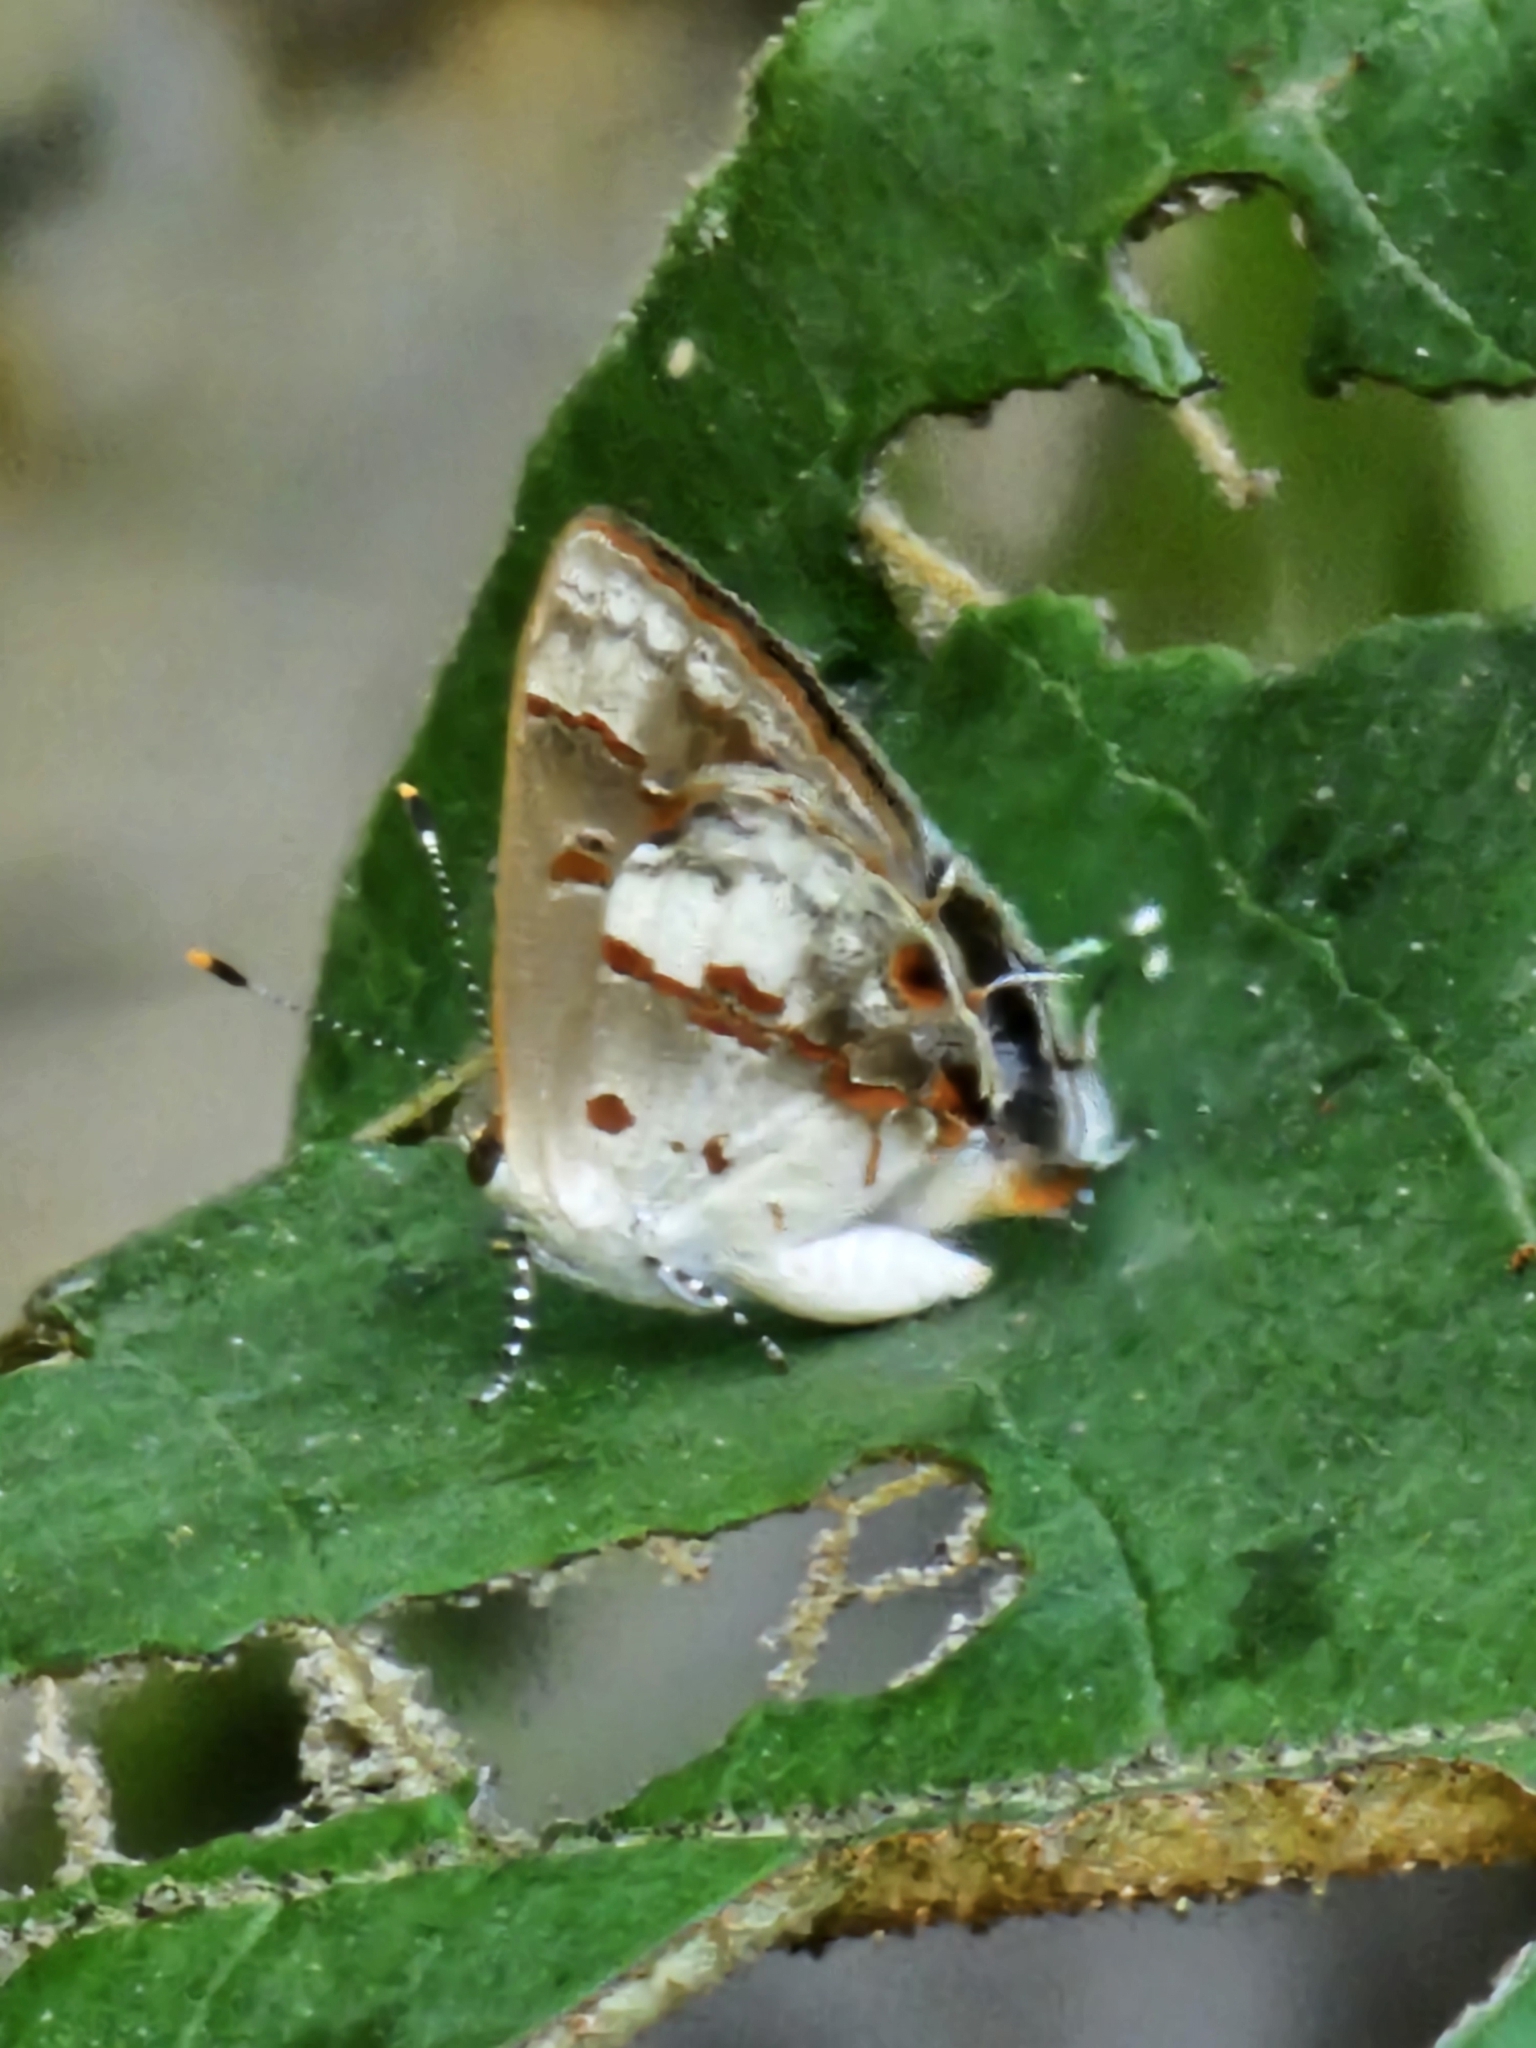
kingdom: Animalia
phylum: Arthropoda
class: Insecta
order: Lepidoptera
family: Lycaenidae
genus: Thecla
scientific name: Thecla zilda
